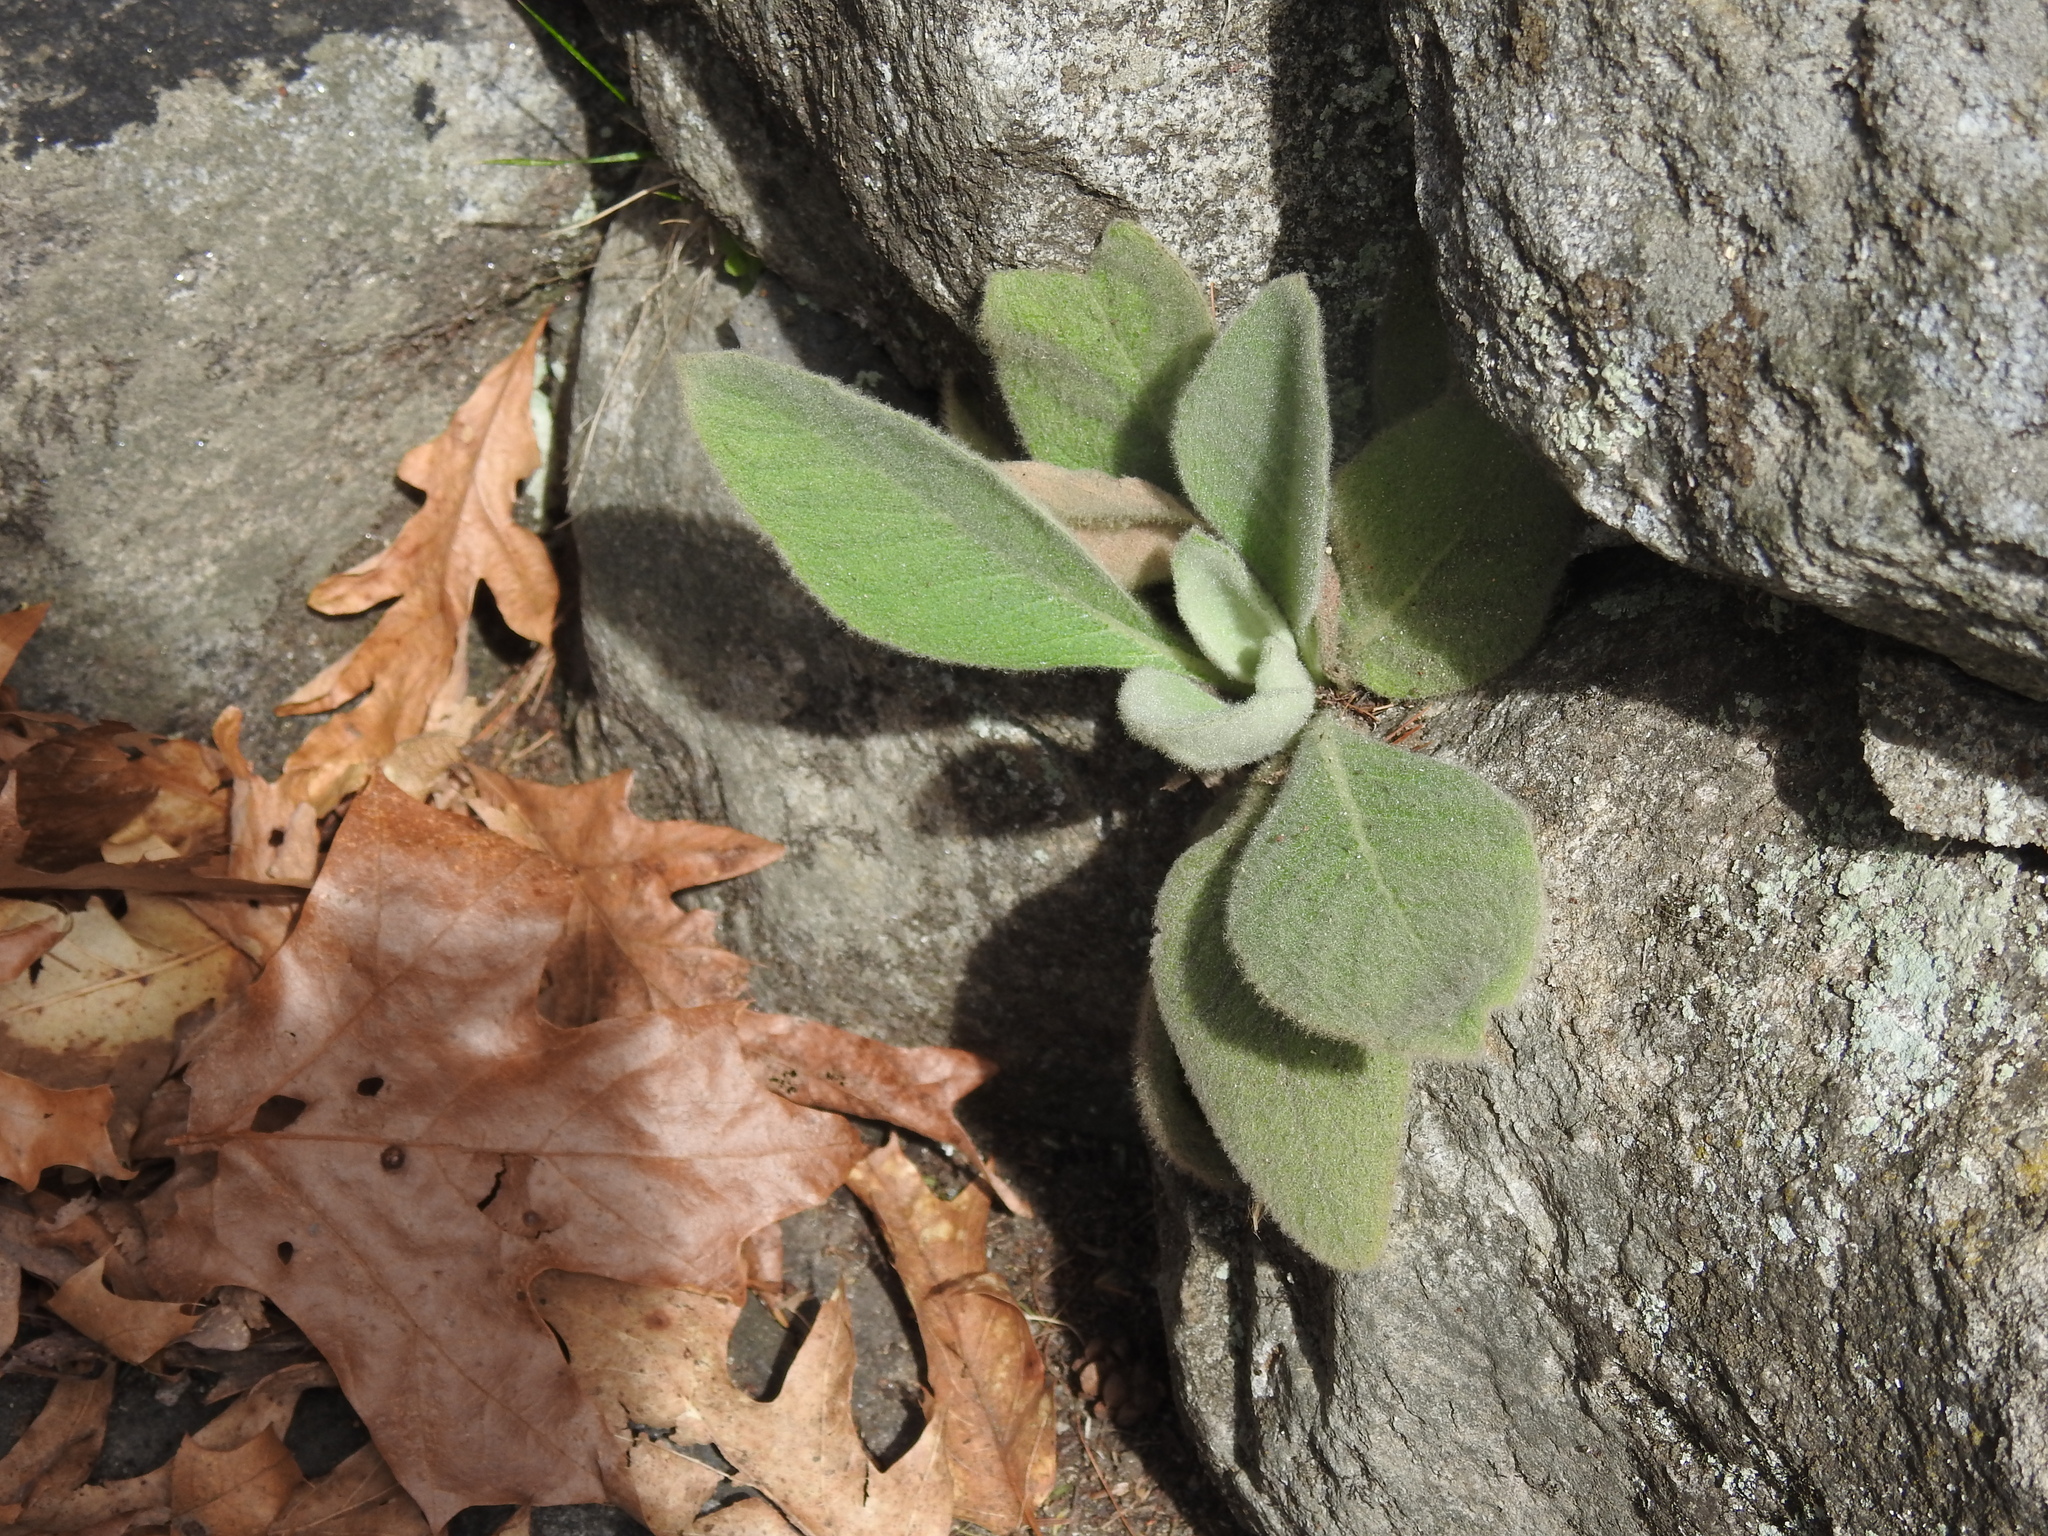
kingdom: Plantae
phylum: Tracheophyta
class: Magnoliopsida
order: Lamiales
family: Scrophulariaceae
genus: Verbascum
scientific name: Verbascum thapsus
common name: Common mullein
